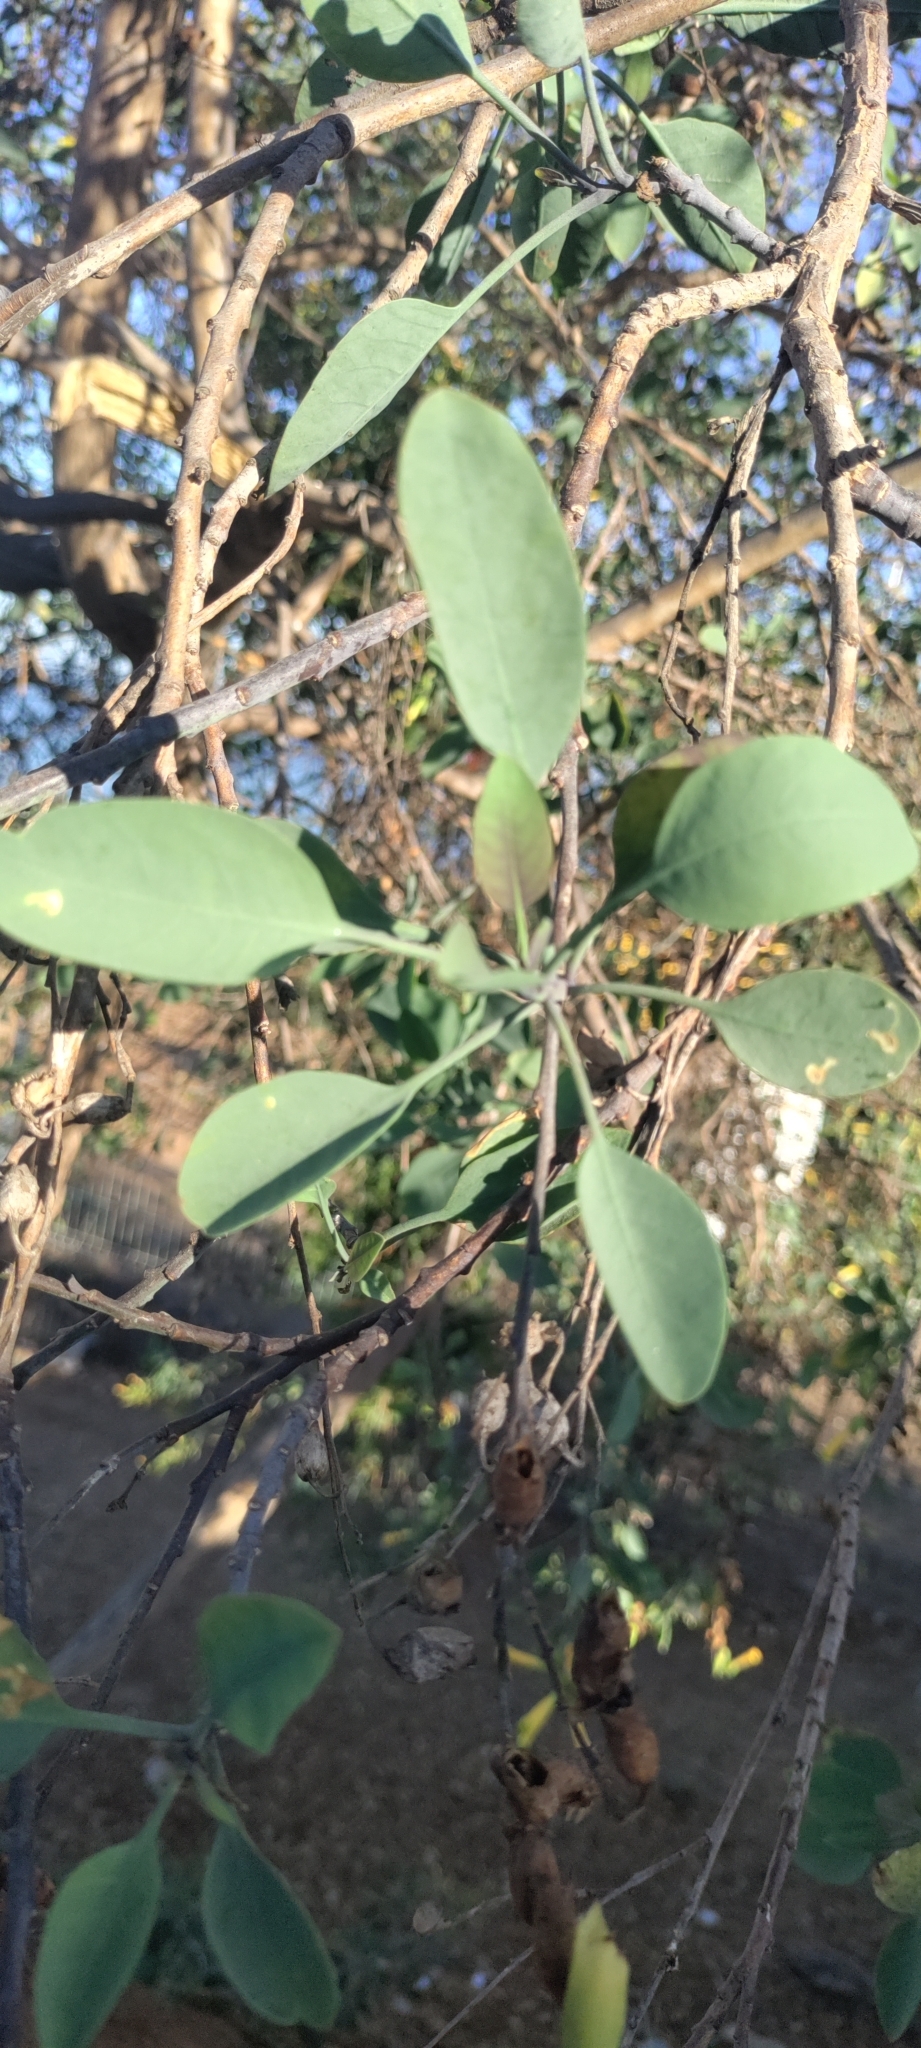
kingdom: Plantae
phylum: Tracheophyta
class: Magnoliopsida
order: Solanales
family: Solanaceae
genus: Nicotiana
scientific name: Nicotiana glauca
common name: Tree tobacco
